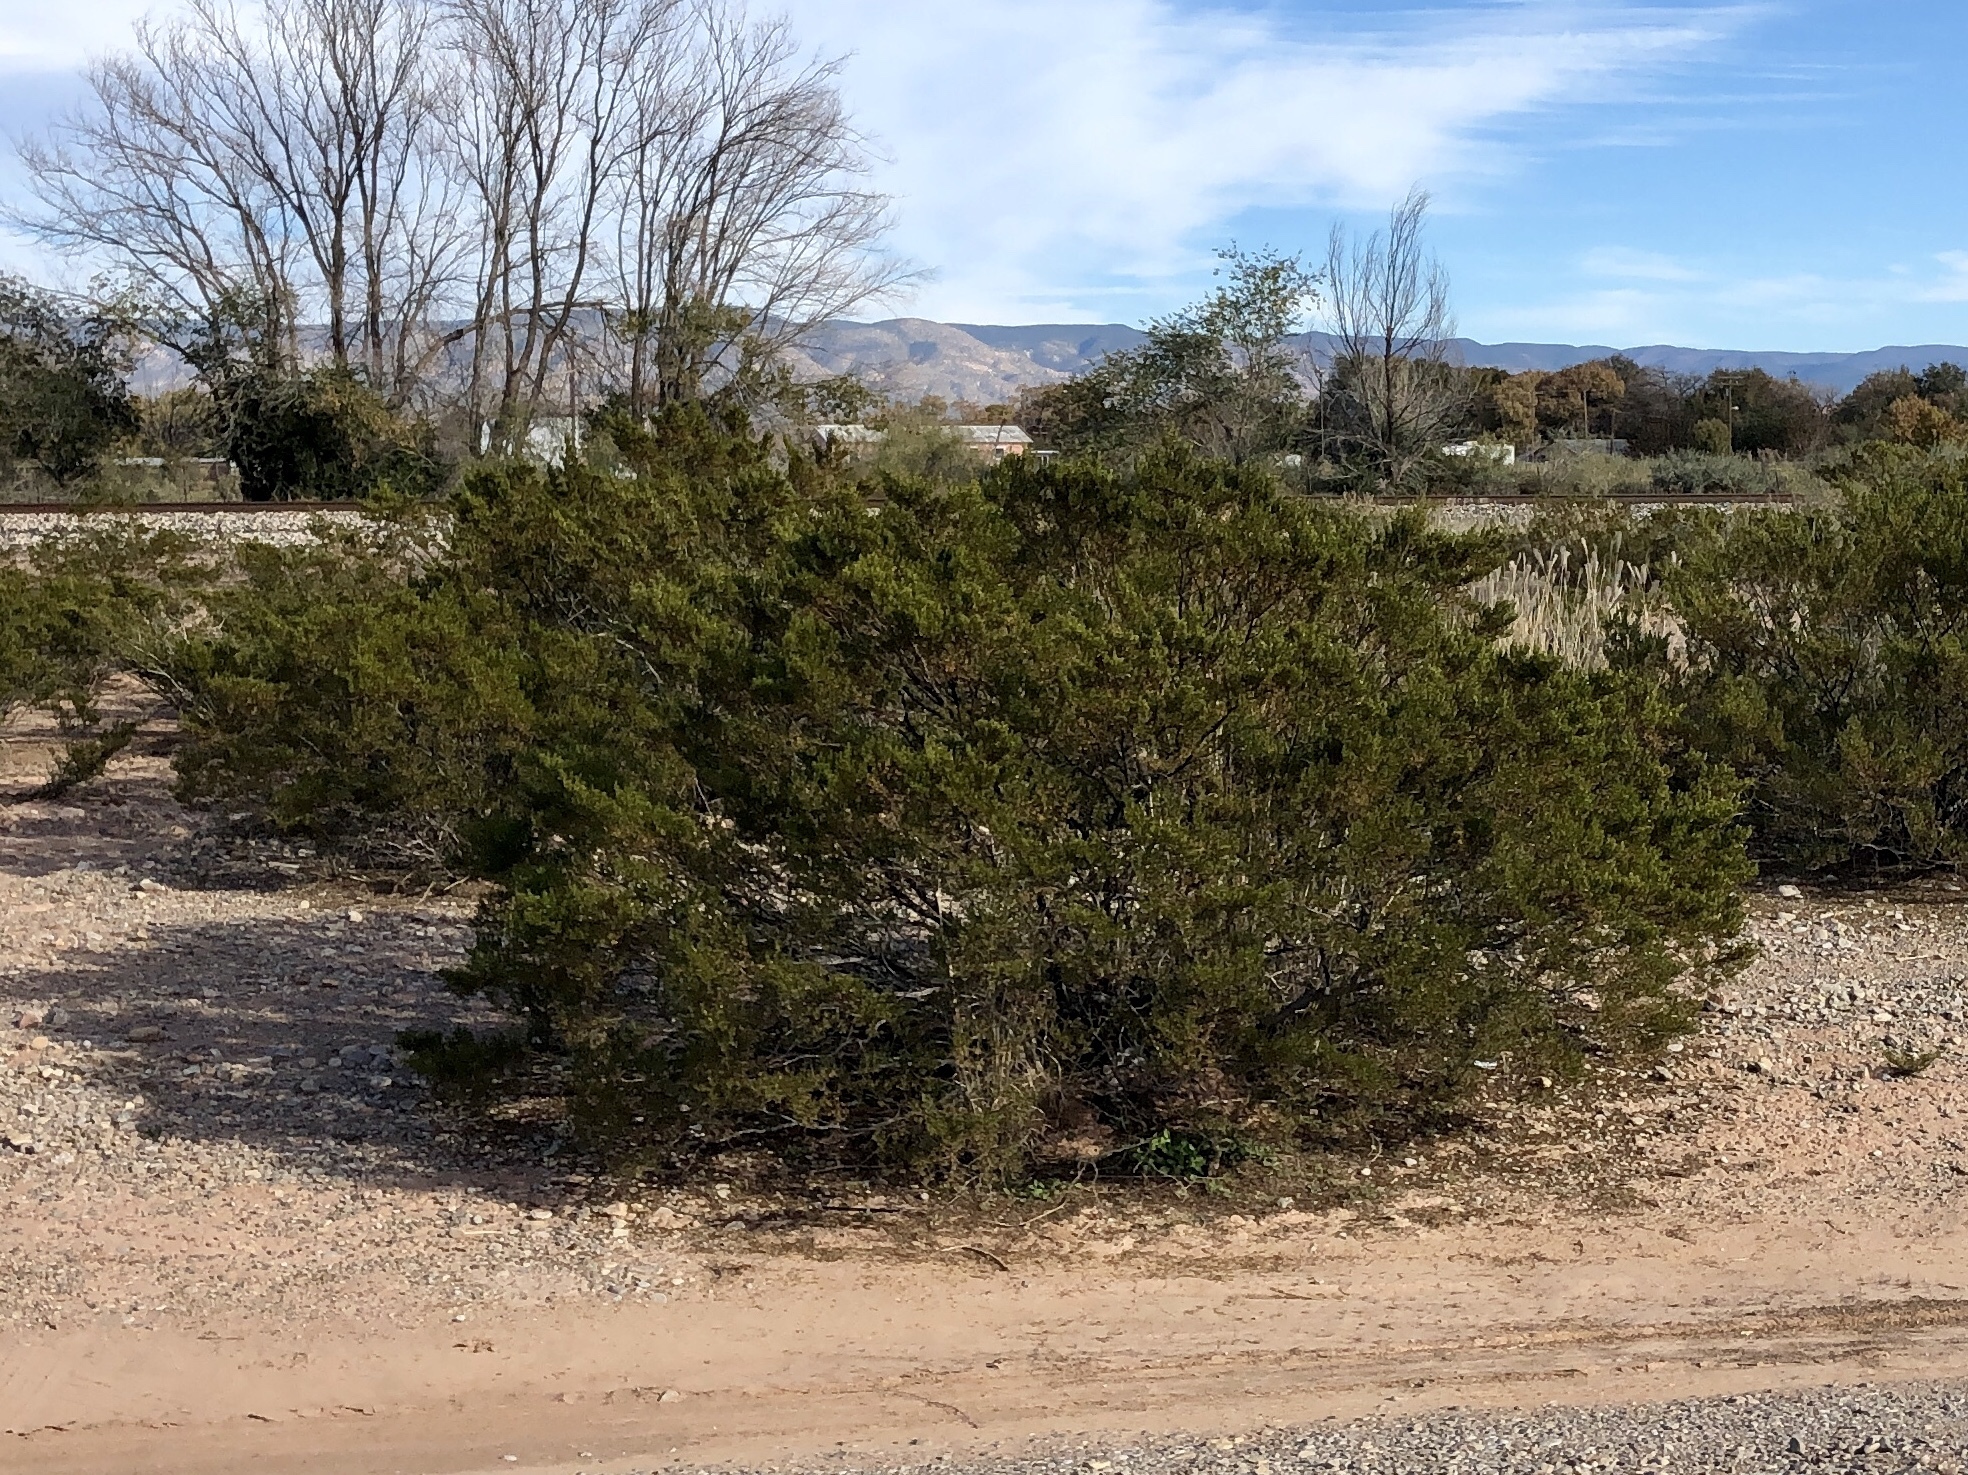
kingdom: Plantae
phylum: Tracheophyta
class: Magnoliopsida
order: Zygophyllales
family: Zygophyllaceae
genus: Larrea
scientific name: Larrea tridentata
